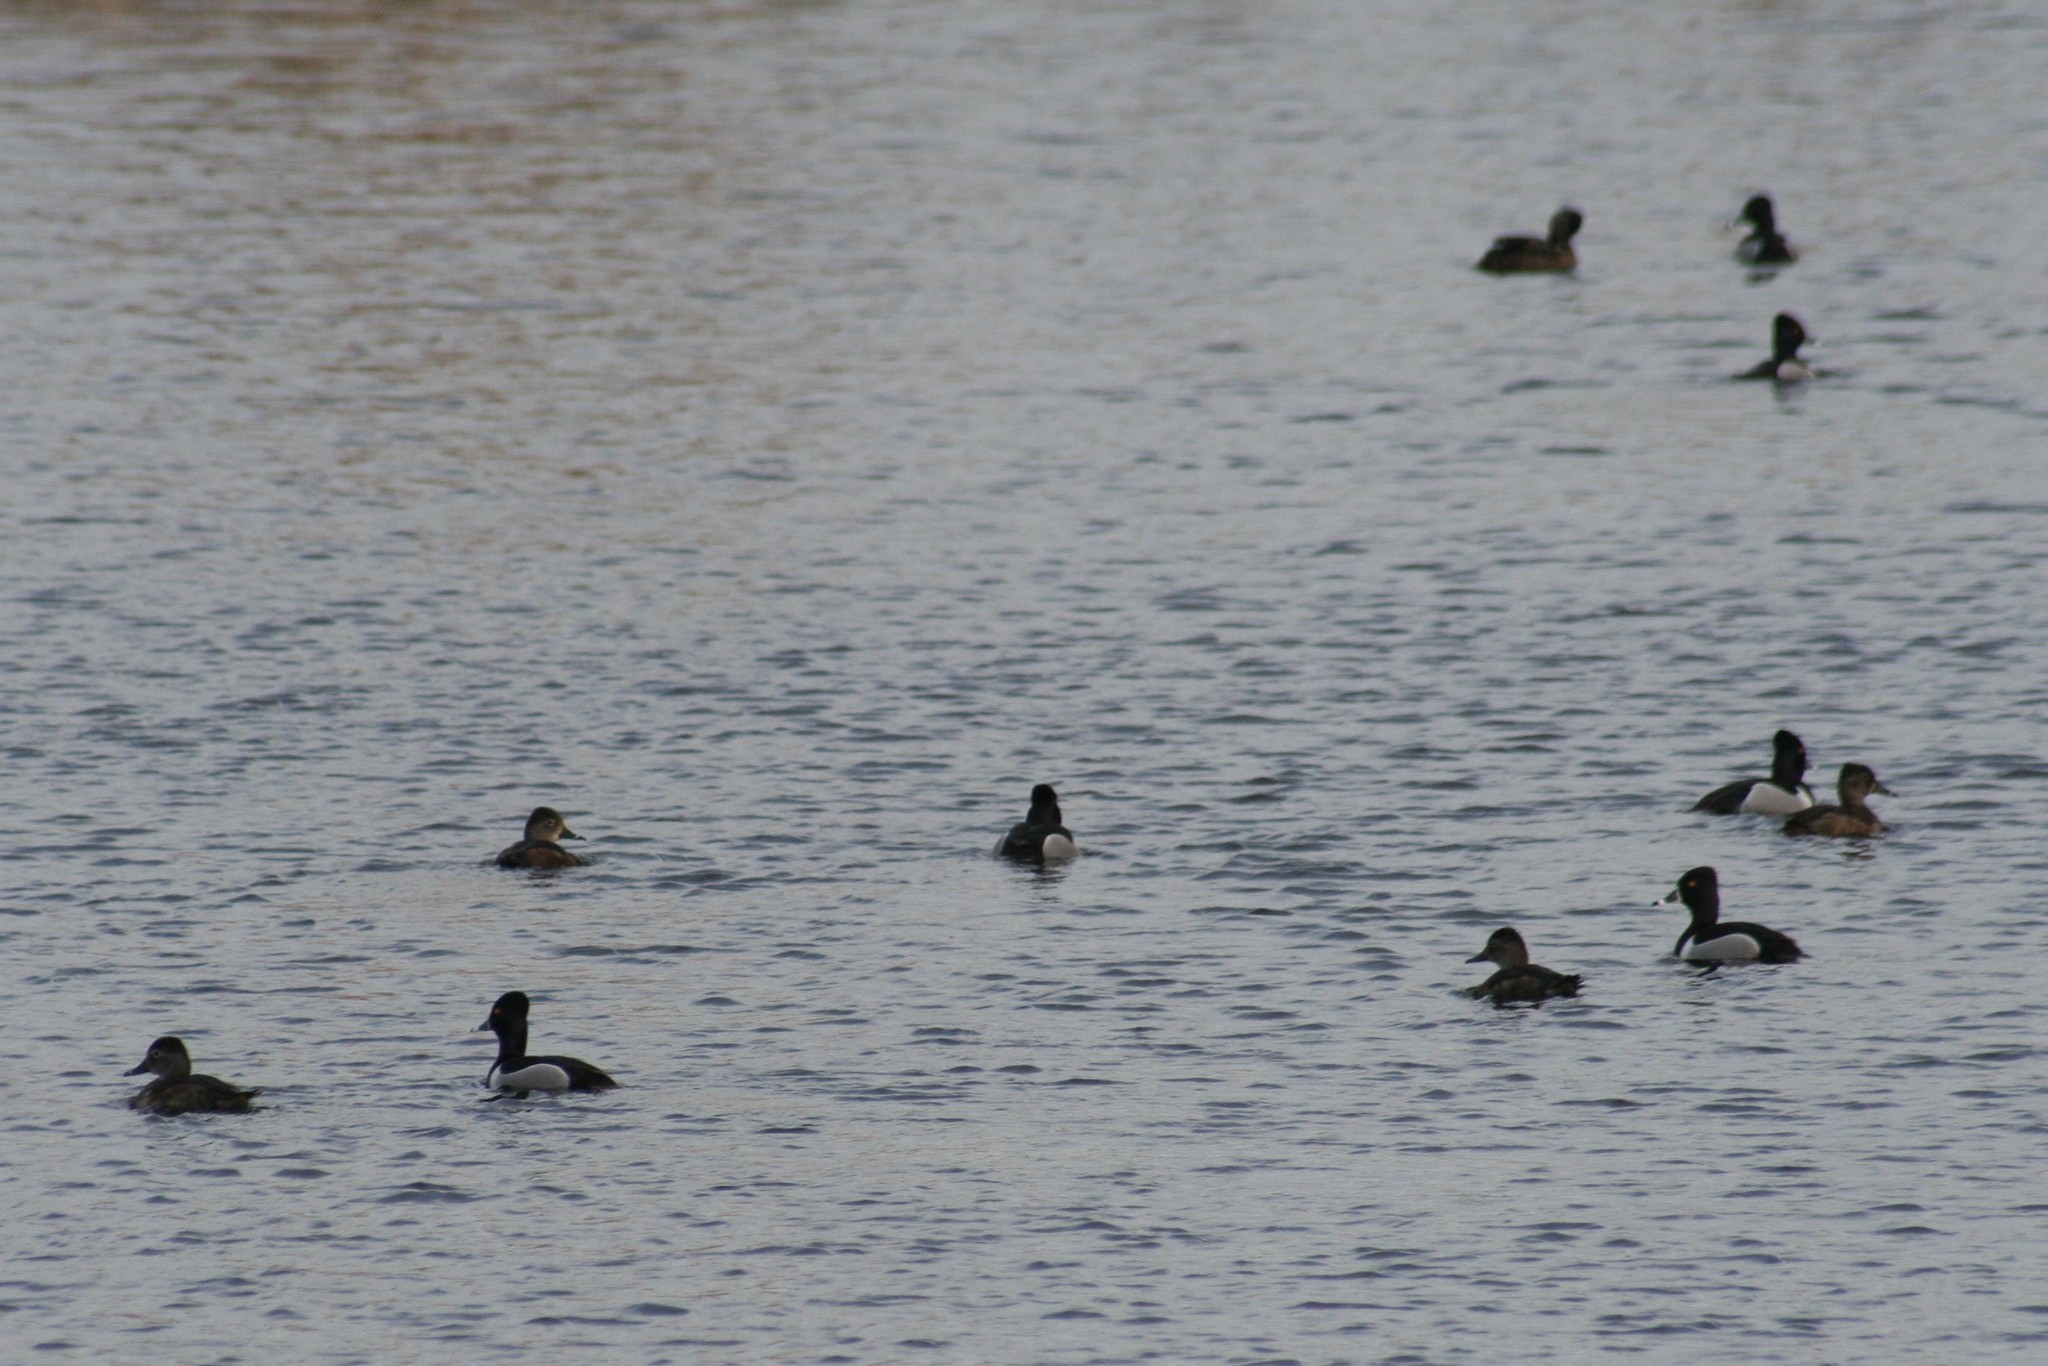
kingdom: Animalia
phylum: Chordata
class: Aves
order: Anseriformes
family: Anatidae
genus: Aythya
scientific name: Aythya collaris
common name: Ring-necked duck
